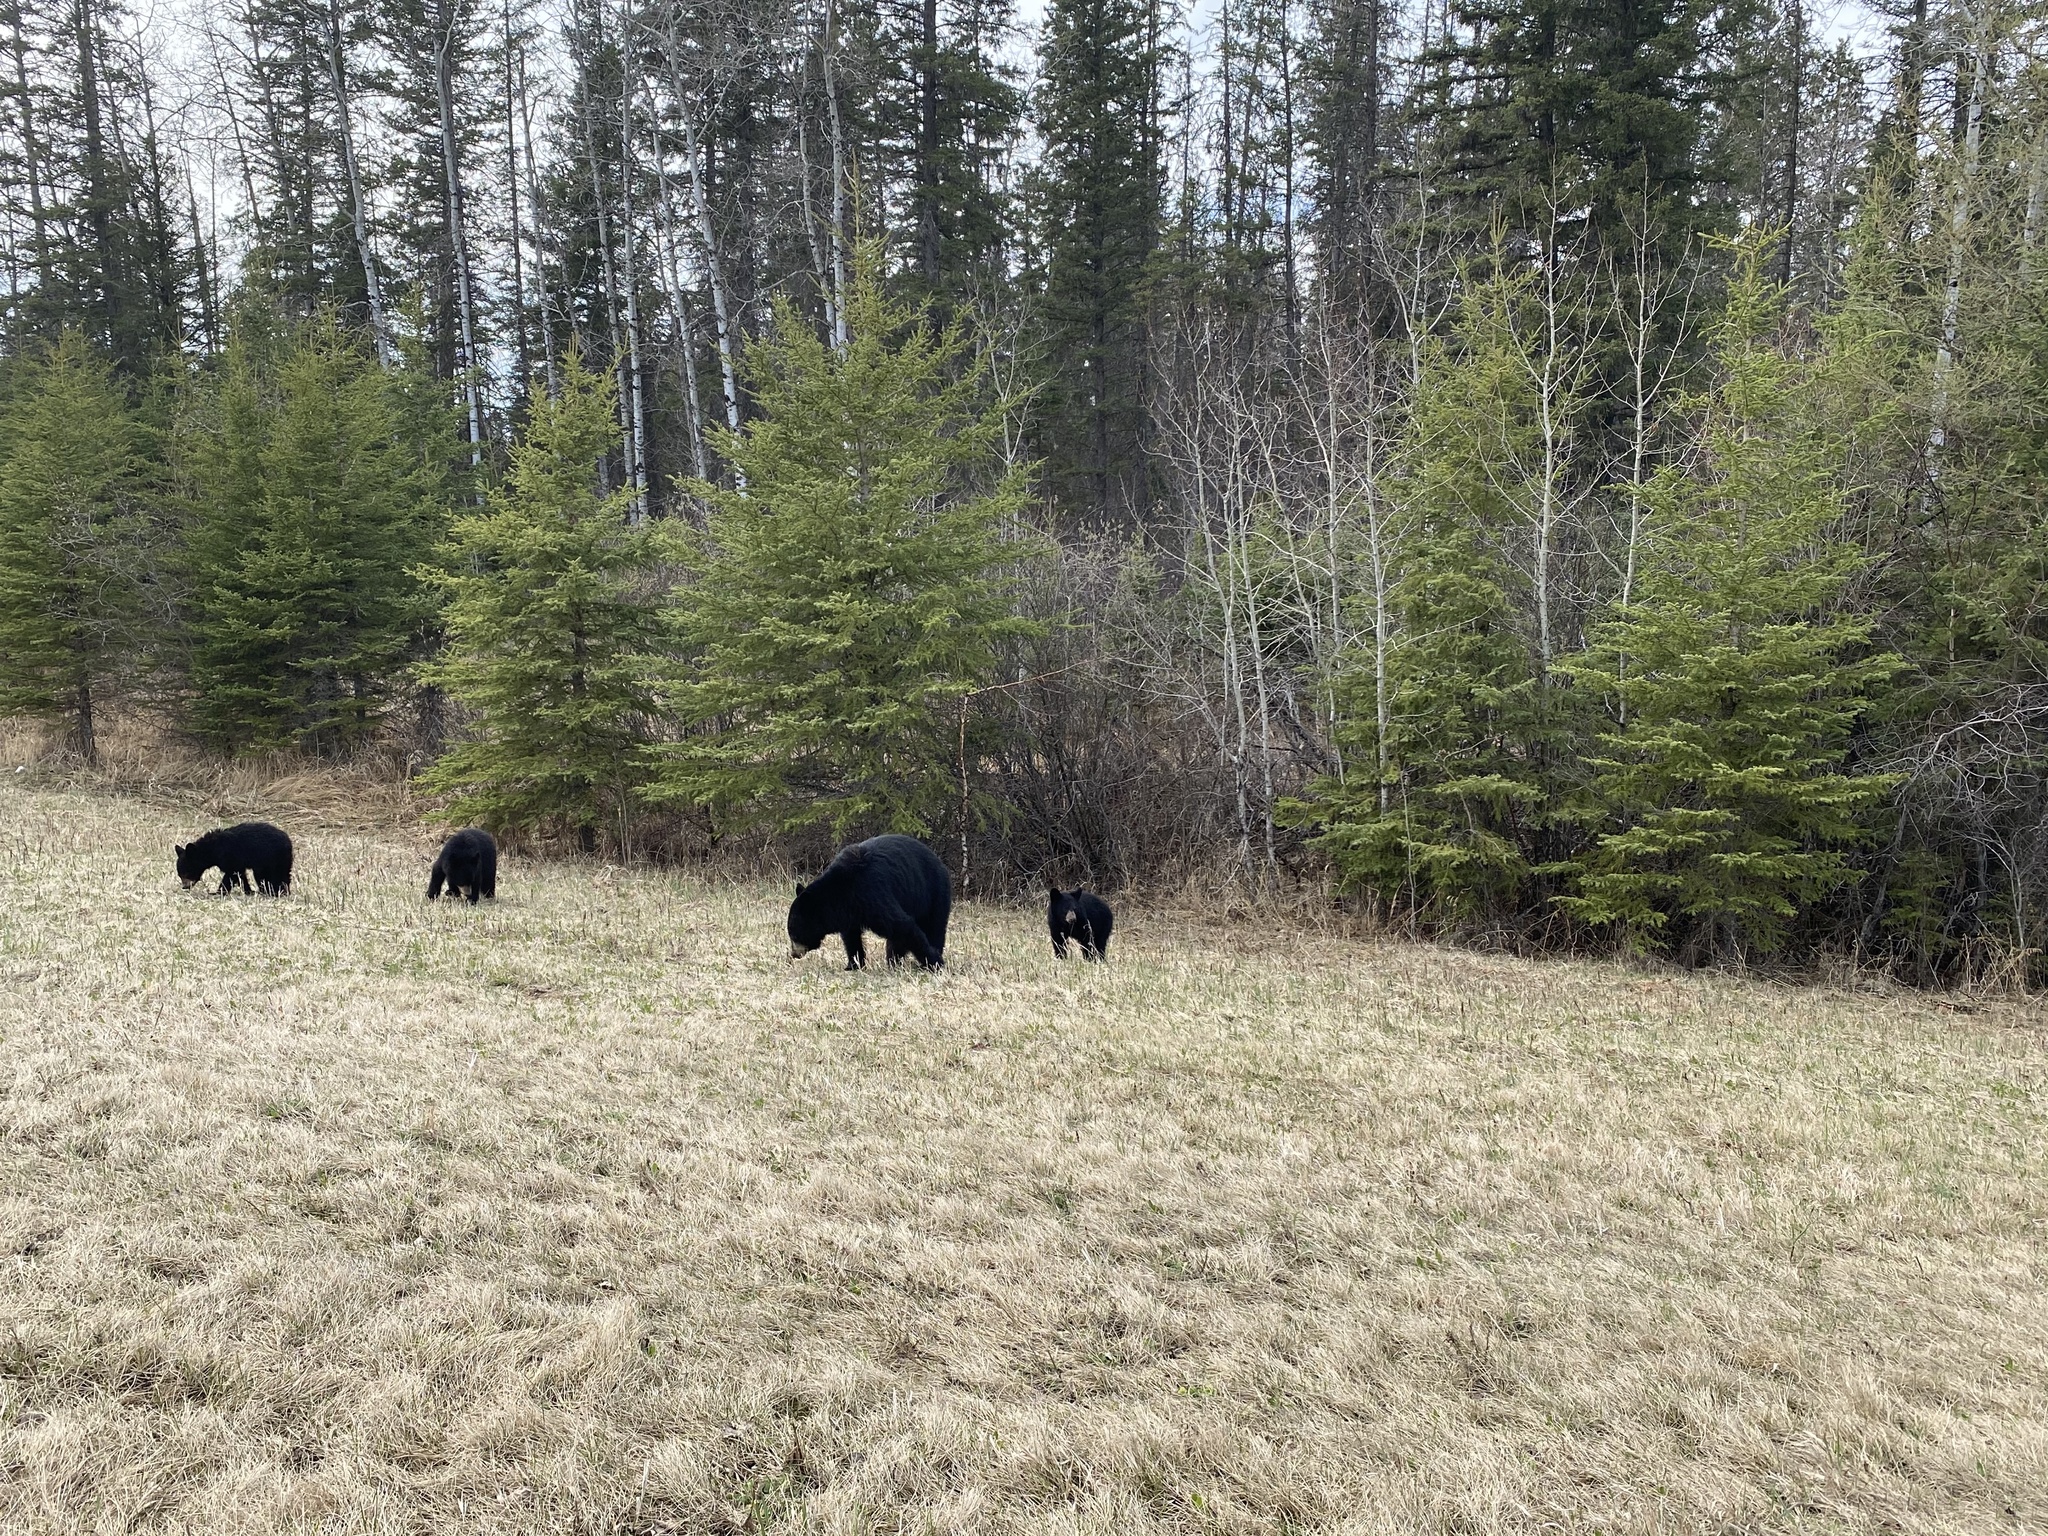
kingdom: Animalia
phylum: Chordata
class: Mammalia
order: Carnivora
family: Ursidae
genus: Ursus
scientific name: Ursus americanus
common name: American black bear
